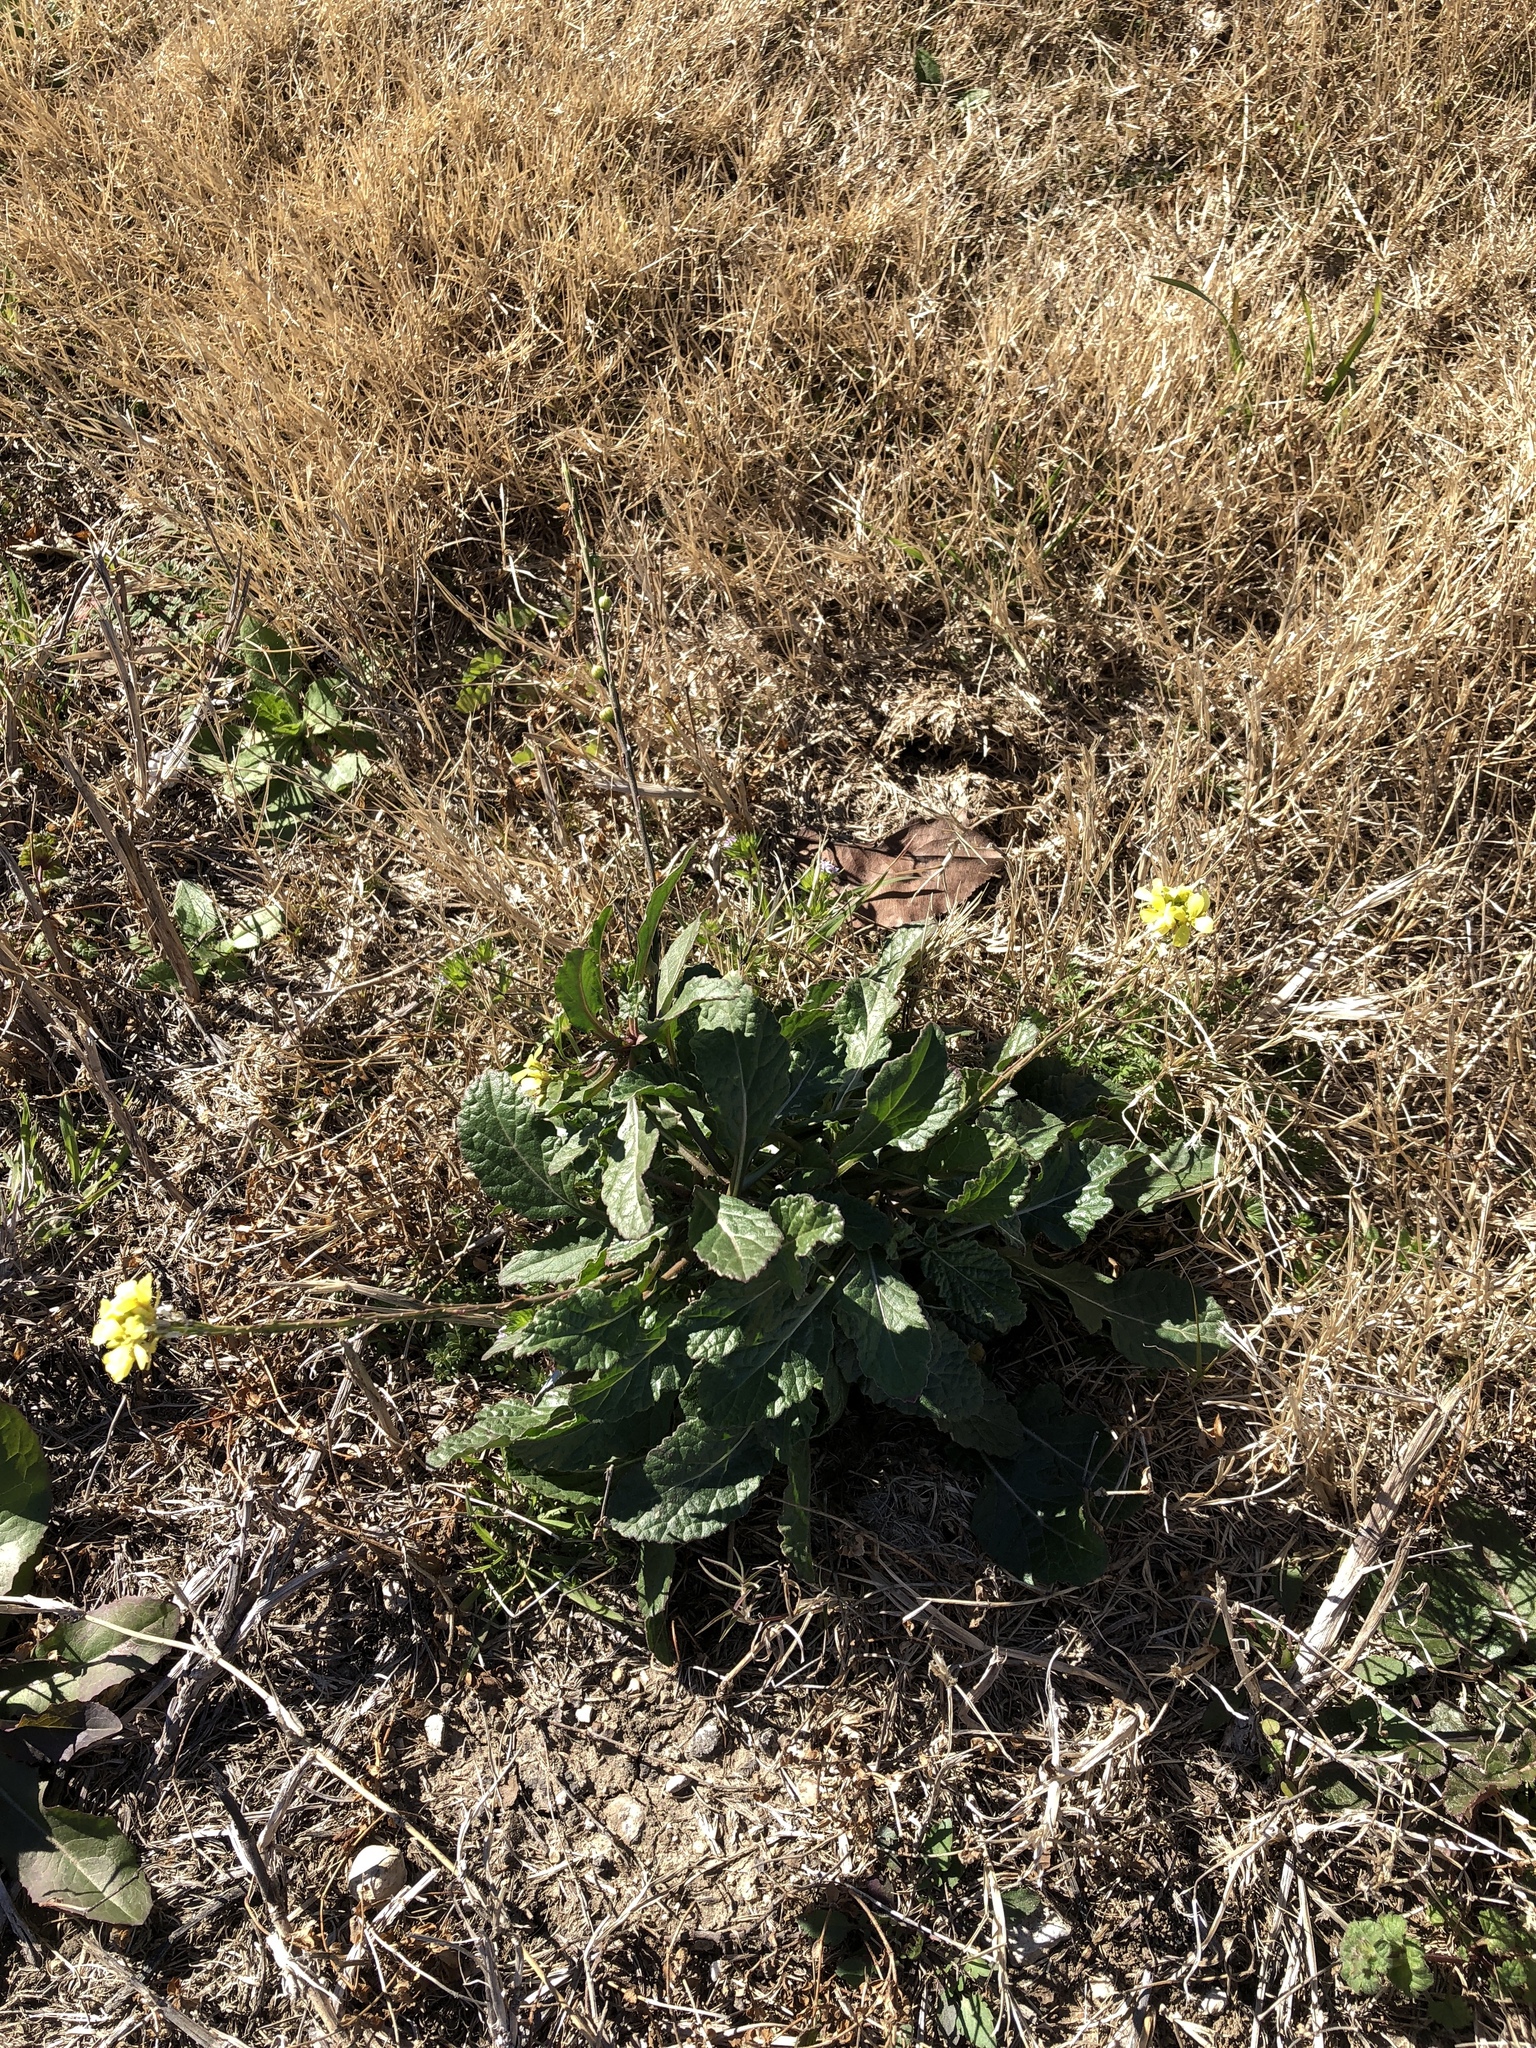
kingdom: Plantae
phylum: Tracheophyta
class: Magnoliopsida
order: Brassicales
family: Brassicaceae
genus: Rapistrum
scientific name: Rapistrum rugosum
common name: Annual bastardcabbage
